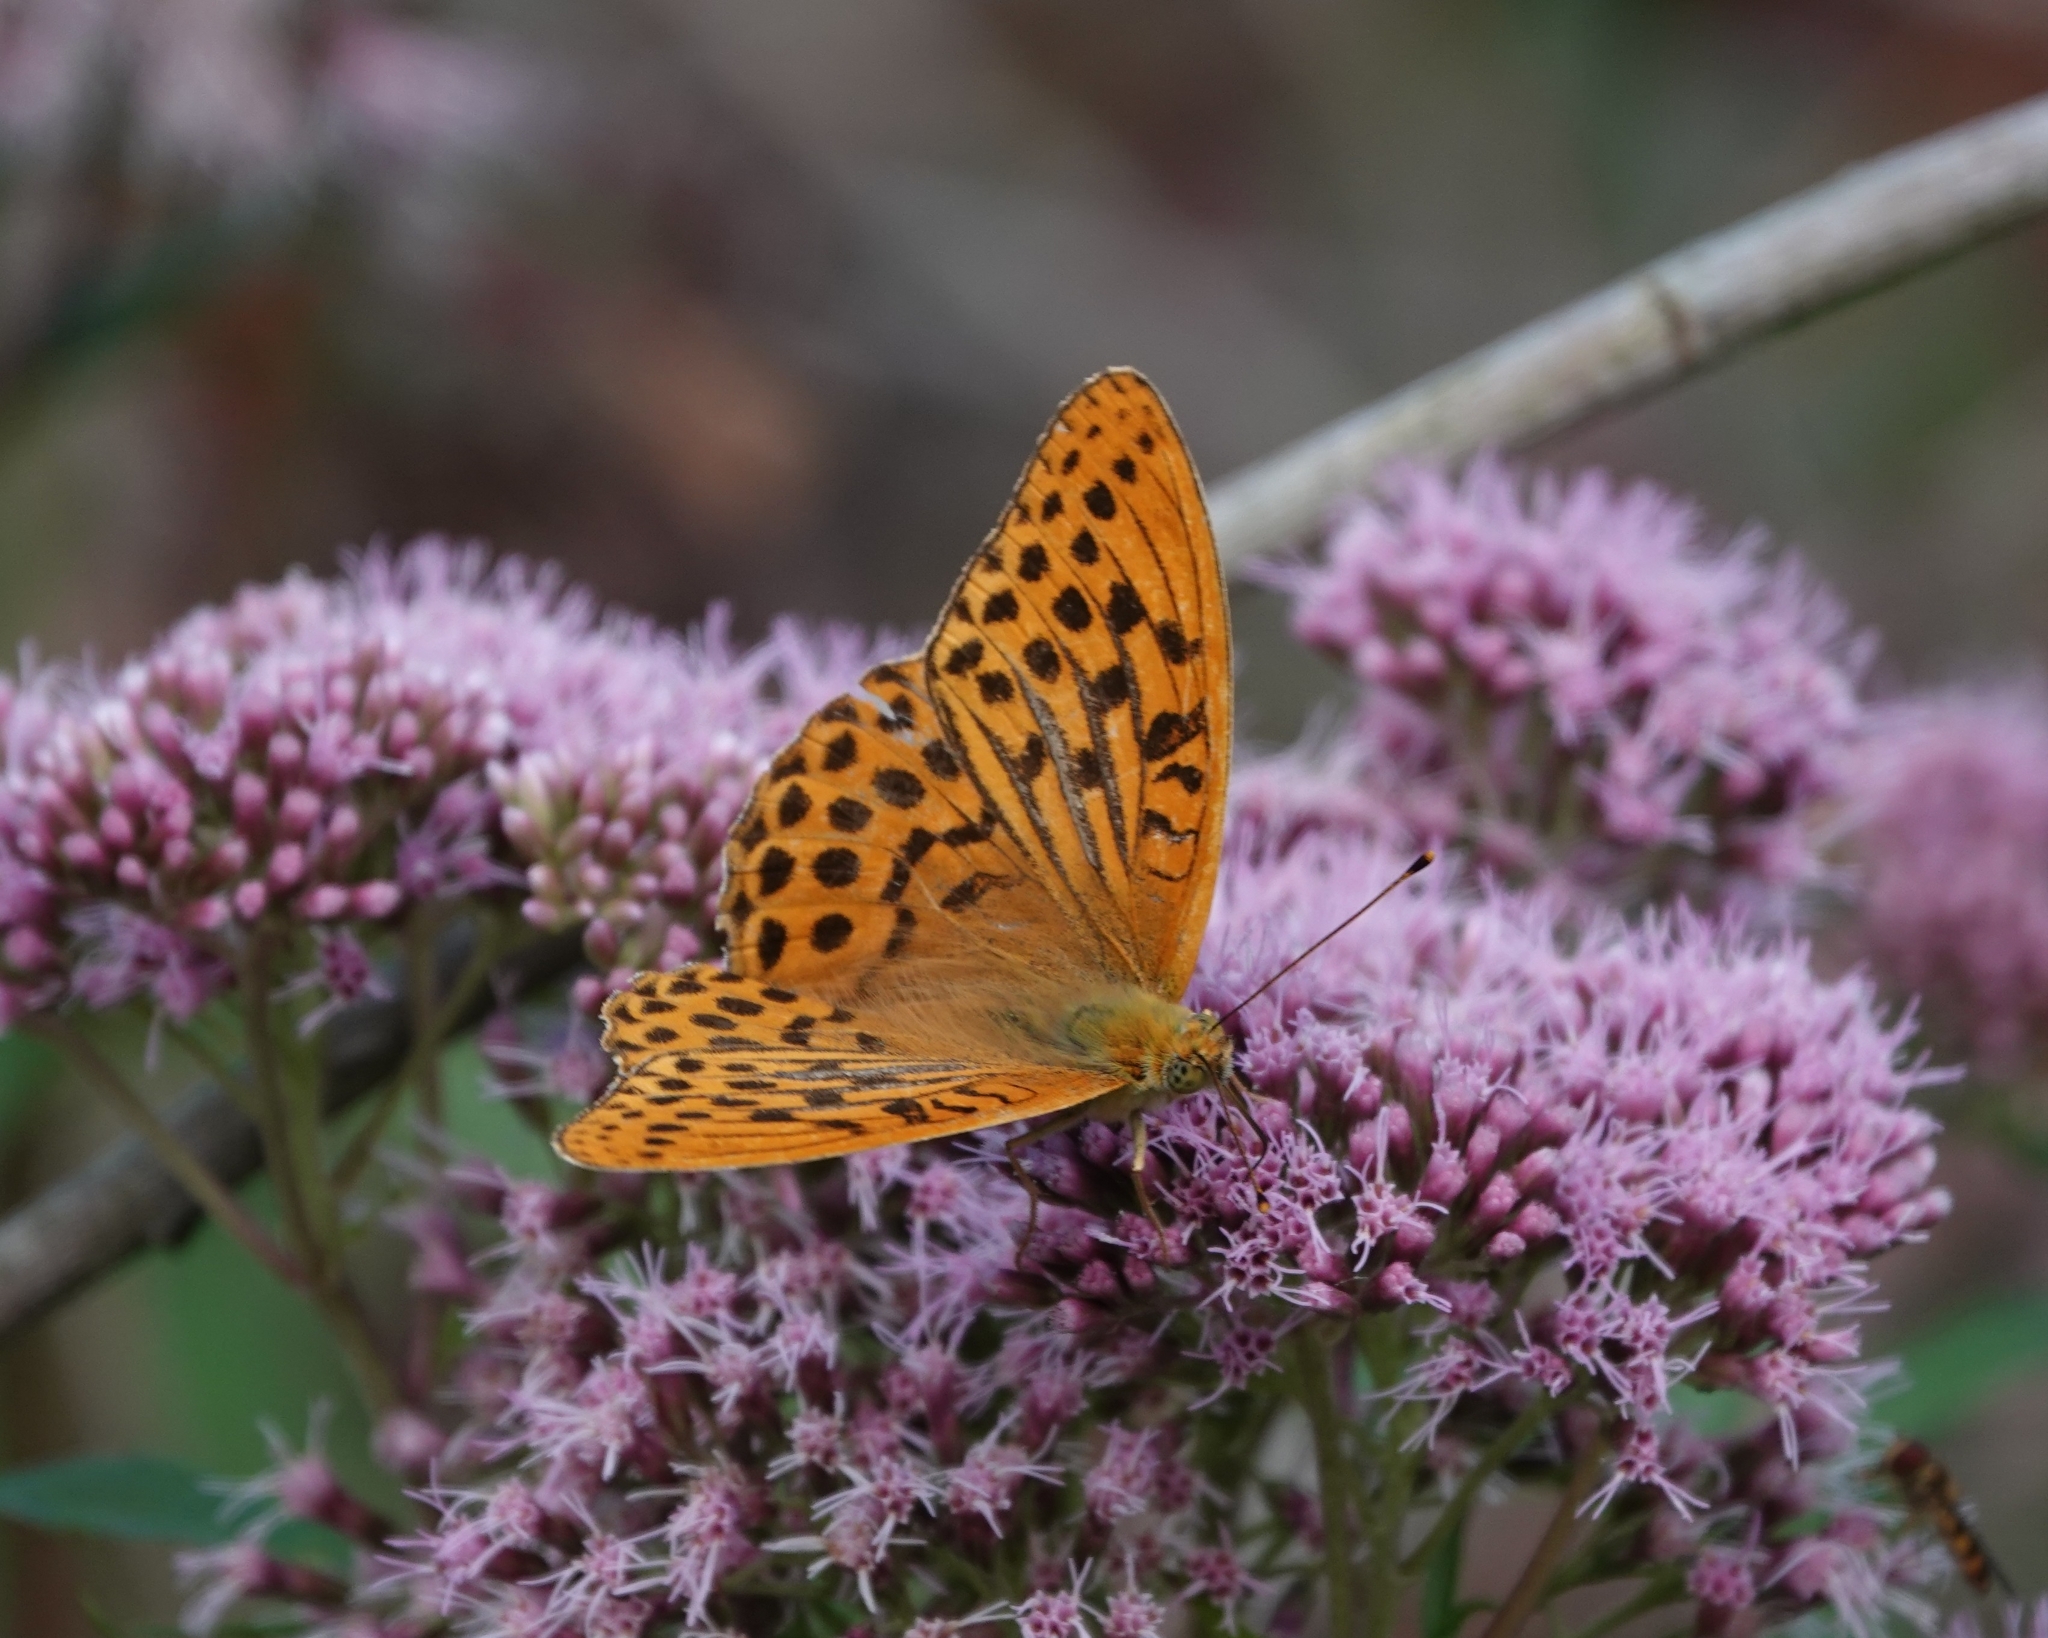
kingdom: Animalia
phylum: Arthropoda
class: Insecta
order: Lepidoptera
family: Nymphalidae
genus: Argynnis
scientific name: Argynnis paphia
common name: Silver-washed fritillary
